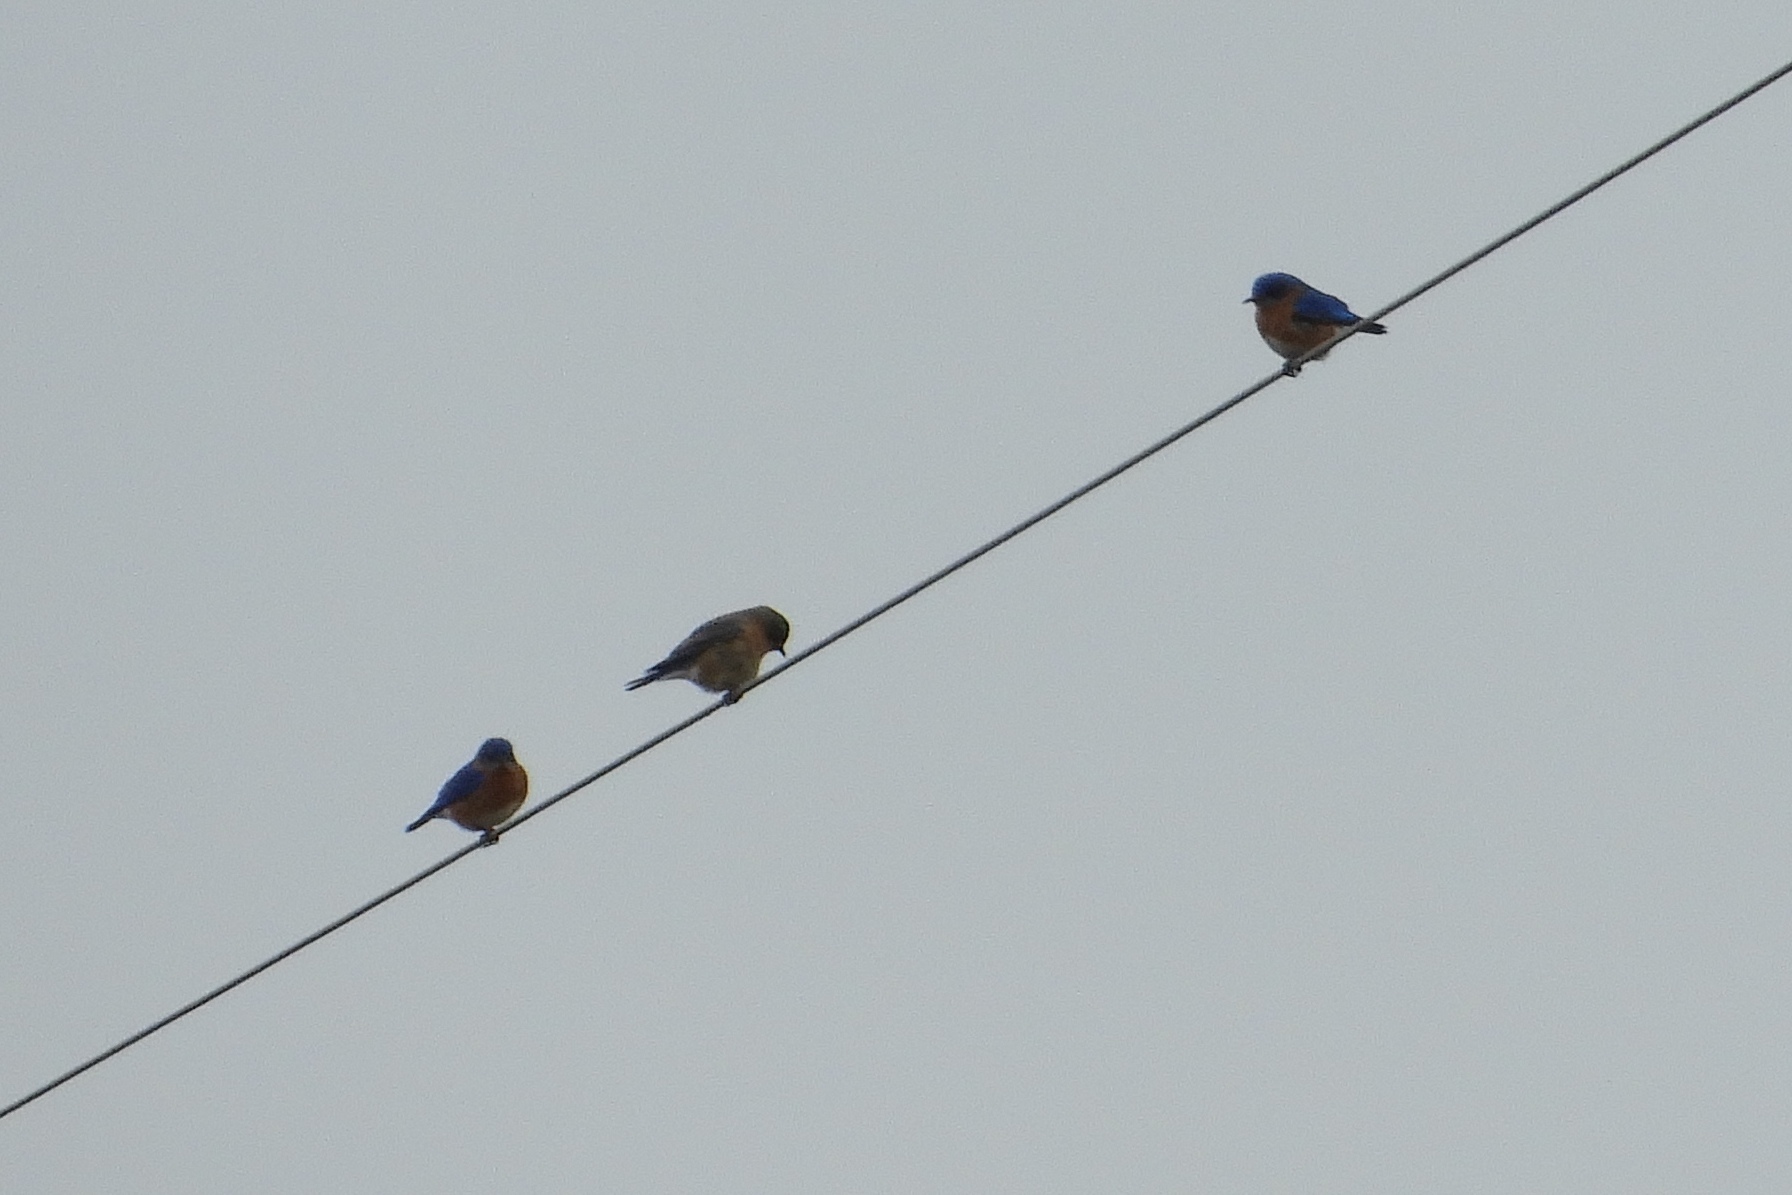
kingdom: Animalia
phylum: Chordata
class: Aves
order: Passeriformes
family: Turdidae
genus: Sialia
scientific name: Sialia sialis
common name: Eastern bluebird
